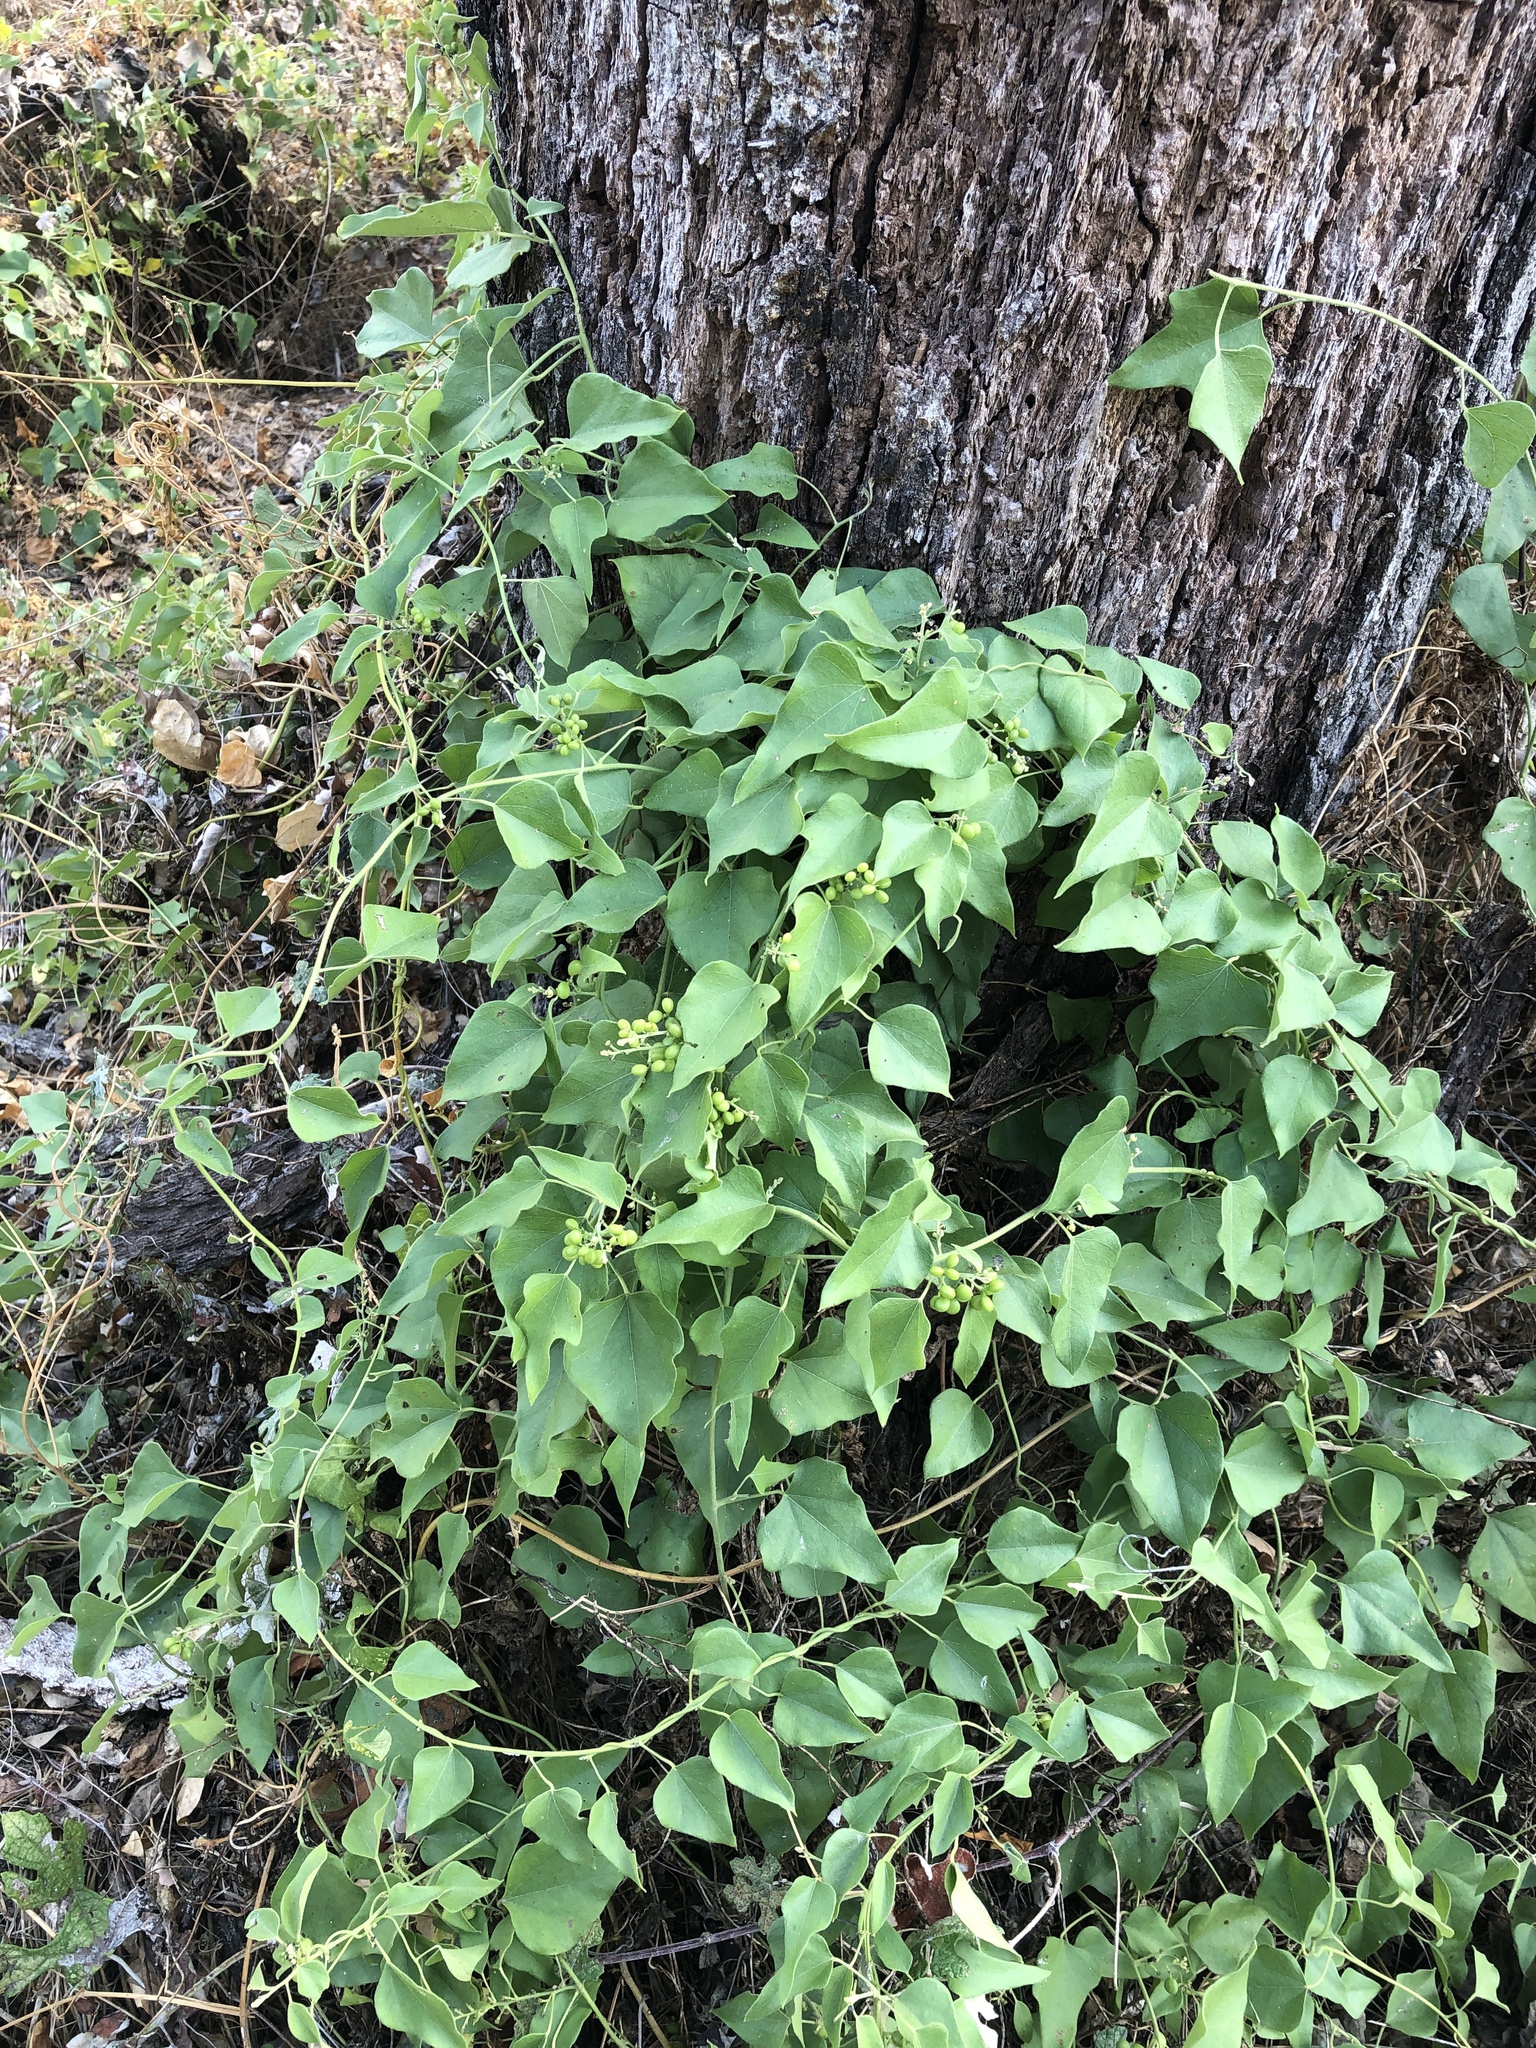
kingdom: Plantae
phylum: Tracheophyta
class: Magnoliopsida
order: Ranunculales
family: Menispermaceae
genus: Cocculus
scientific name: Cocculus carolinus
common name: Carolina moonseed
